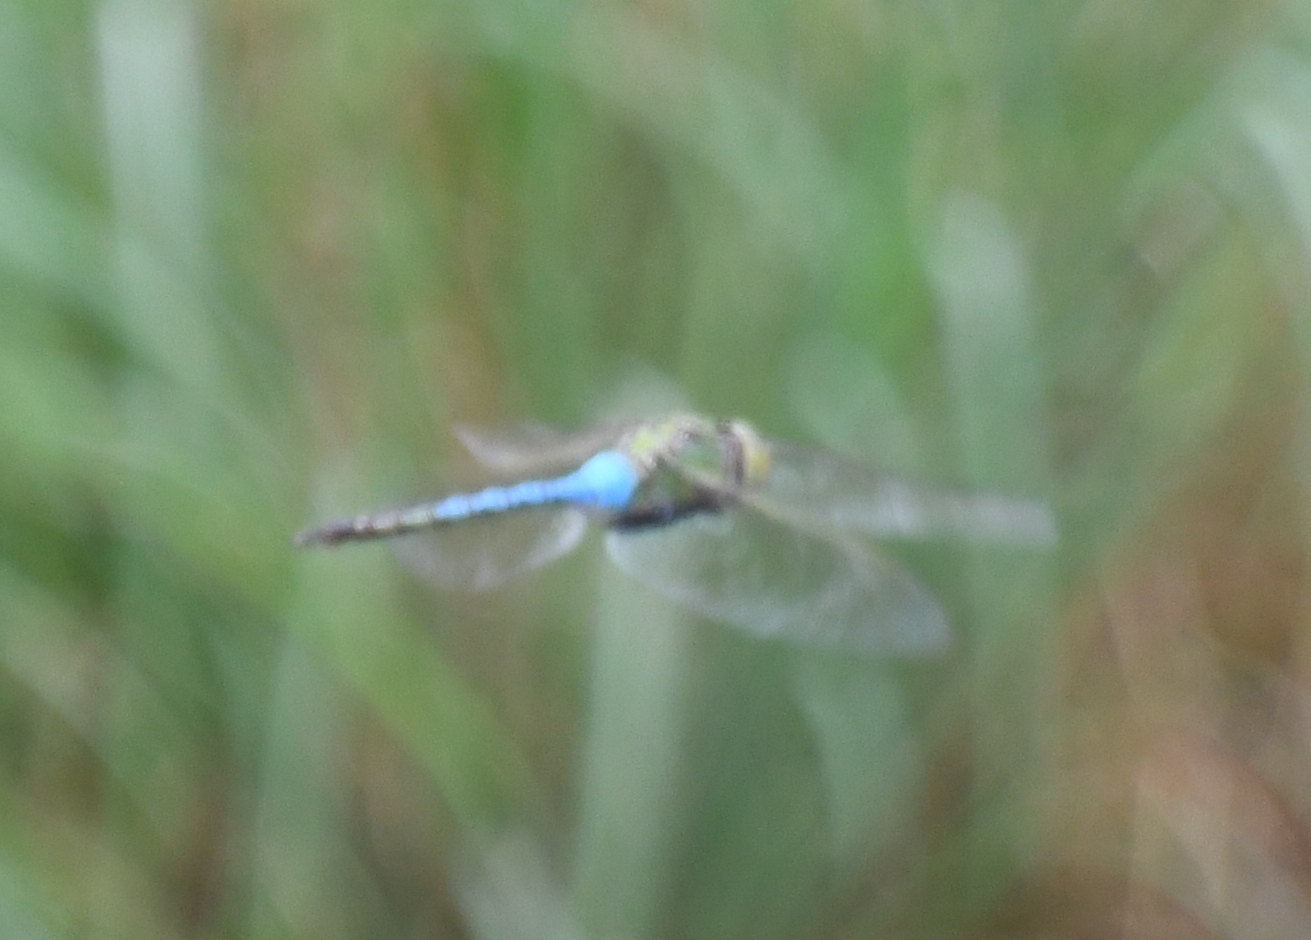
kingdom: Animalia
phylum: Arthropoda
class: Insecta
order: Odonata
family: Aeshnidae
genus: Anax
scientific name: Anax junius
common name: Common green darner
